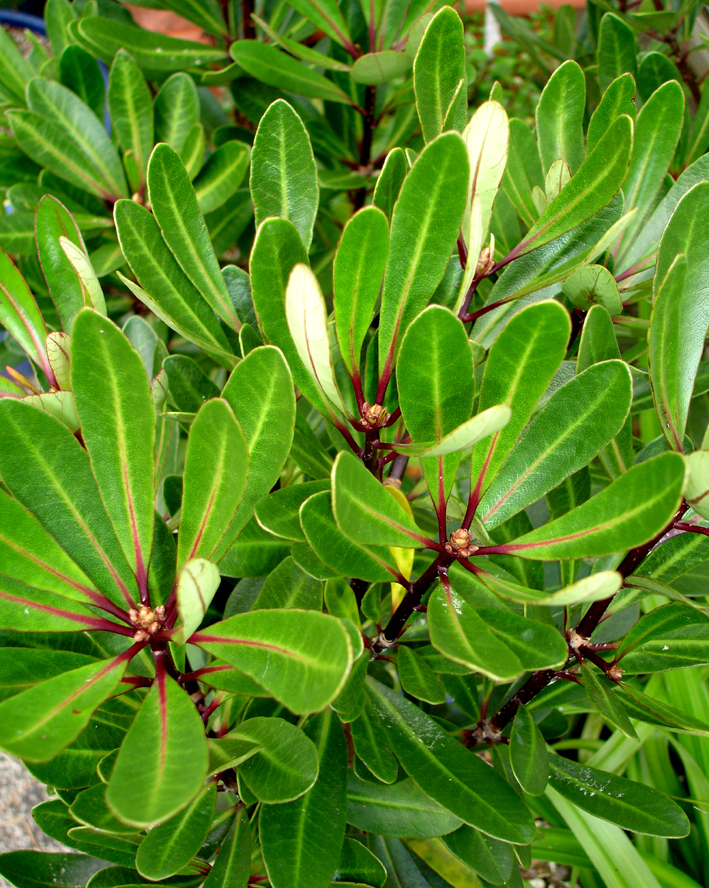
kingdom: Plantae
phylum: Tracheophyta
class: Magnoliopsida
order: Apiales
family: Pittosporaceae
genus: Pittosporum
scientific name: Pittosporum kirkii
